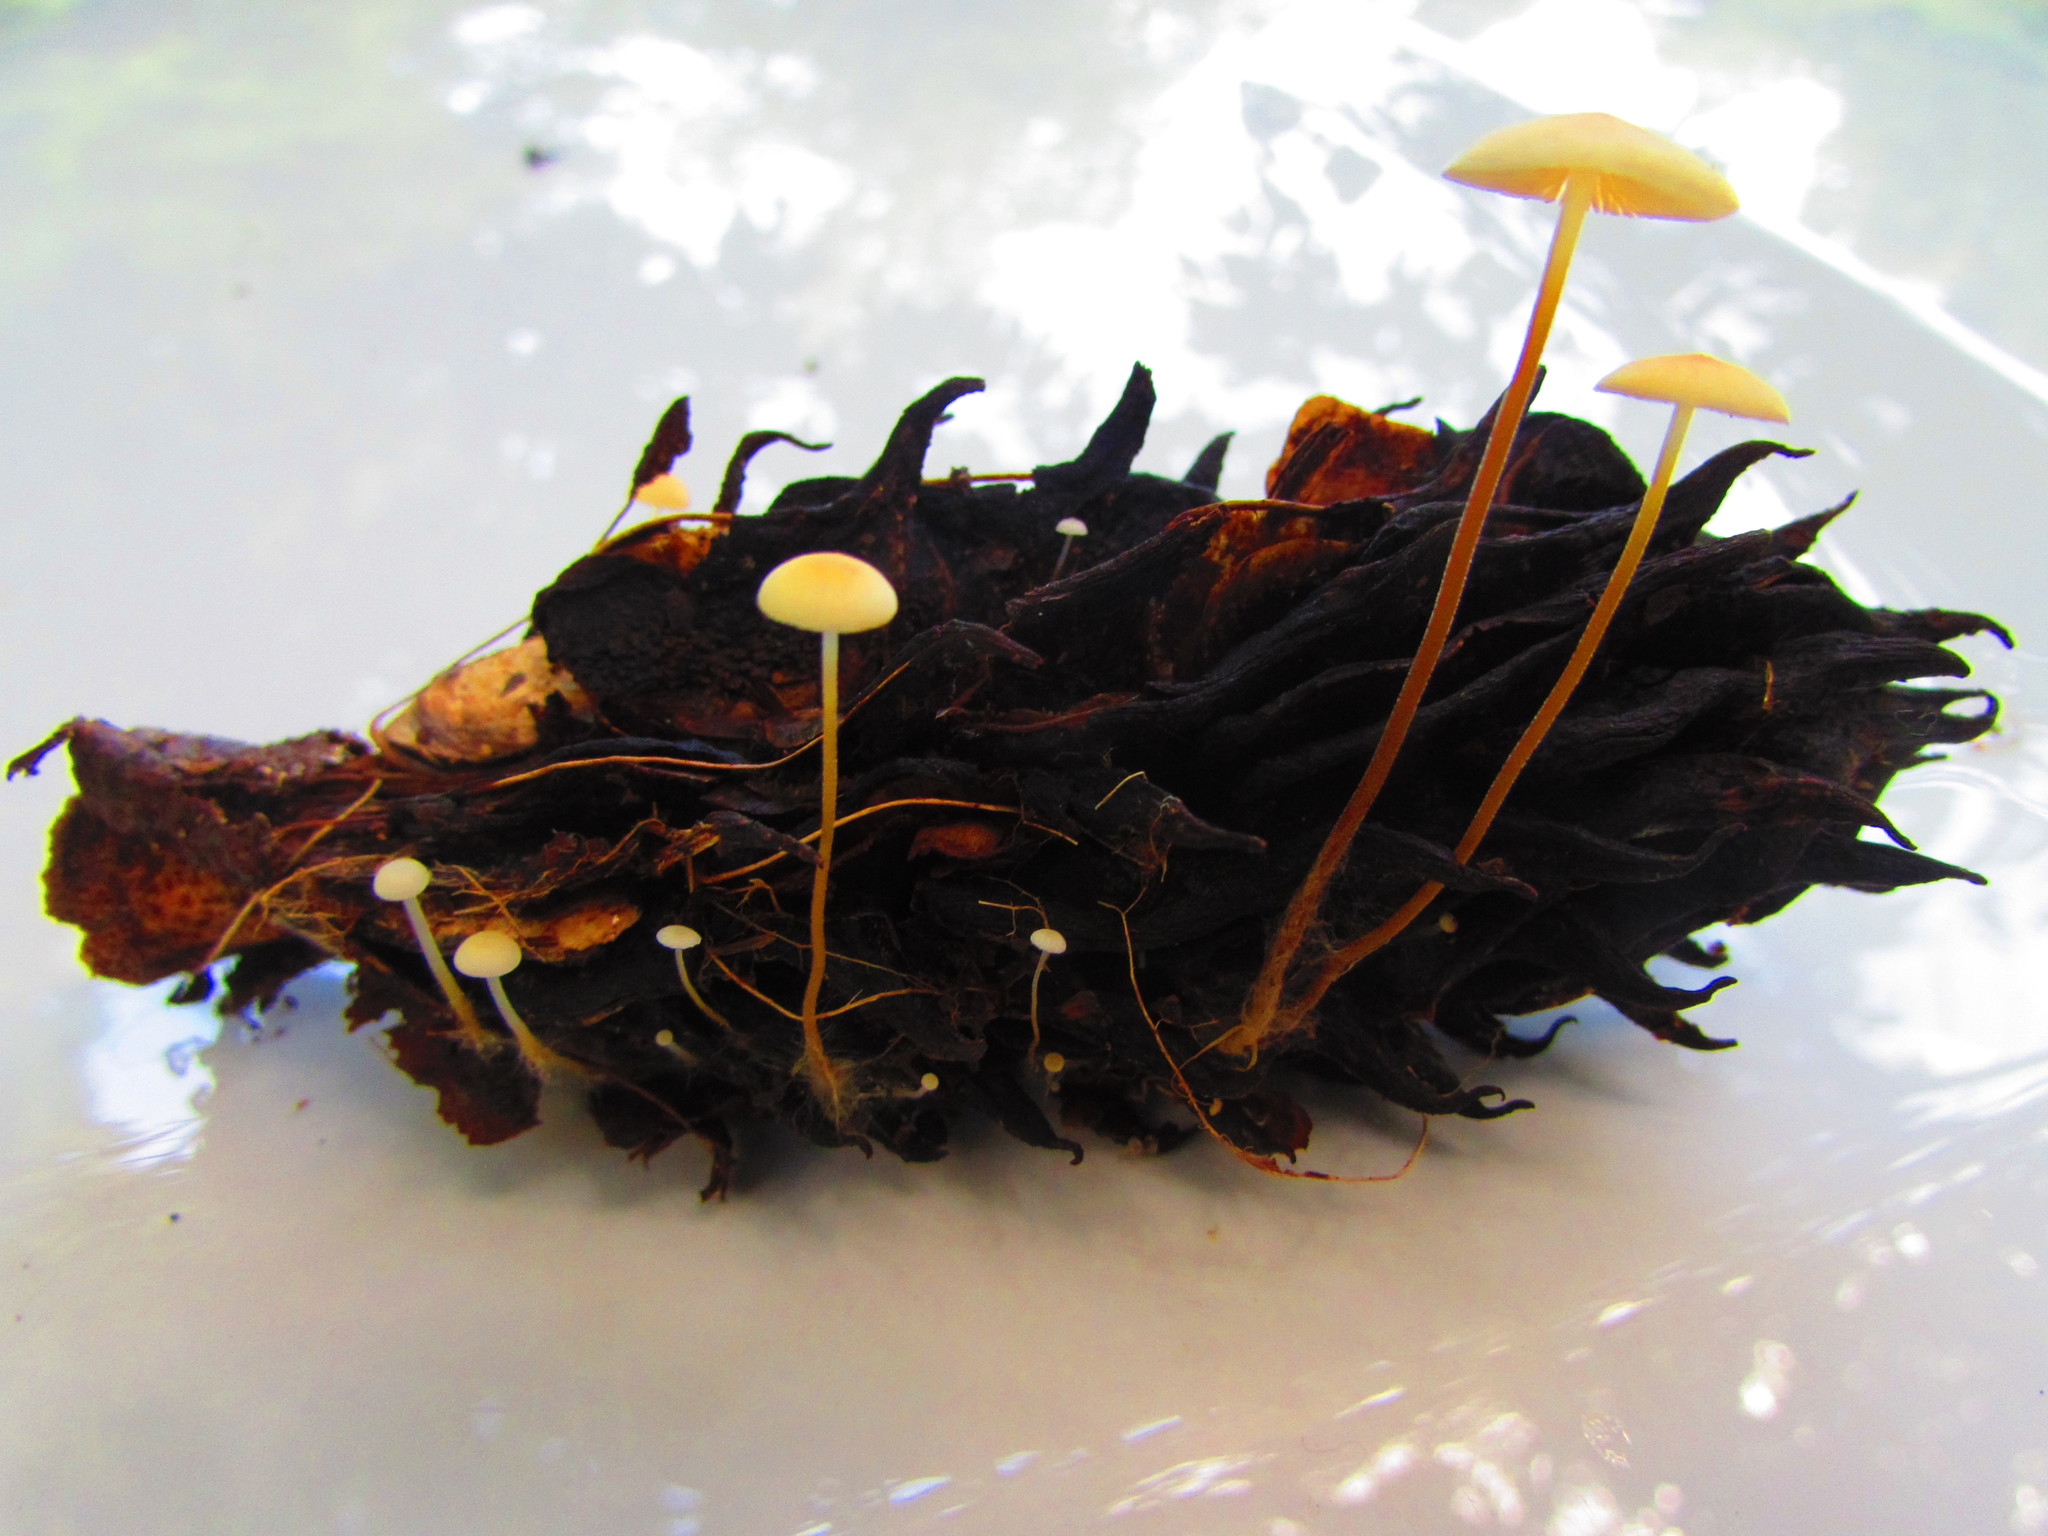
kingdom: Fungi
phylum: Basidiomycota
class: Agaricomycetes
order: Agaricales
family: Physalacriaceae
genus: Strobilurus
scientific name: Strobilurus conigenoides
